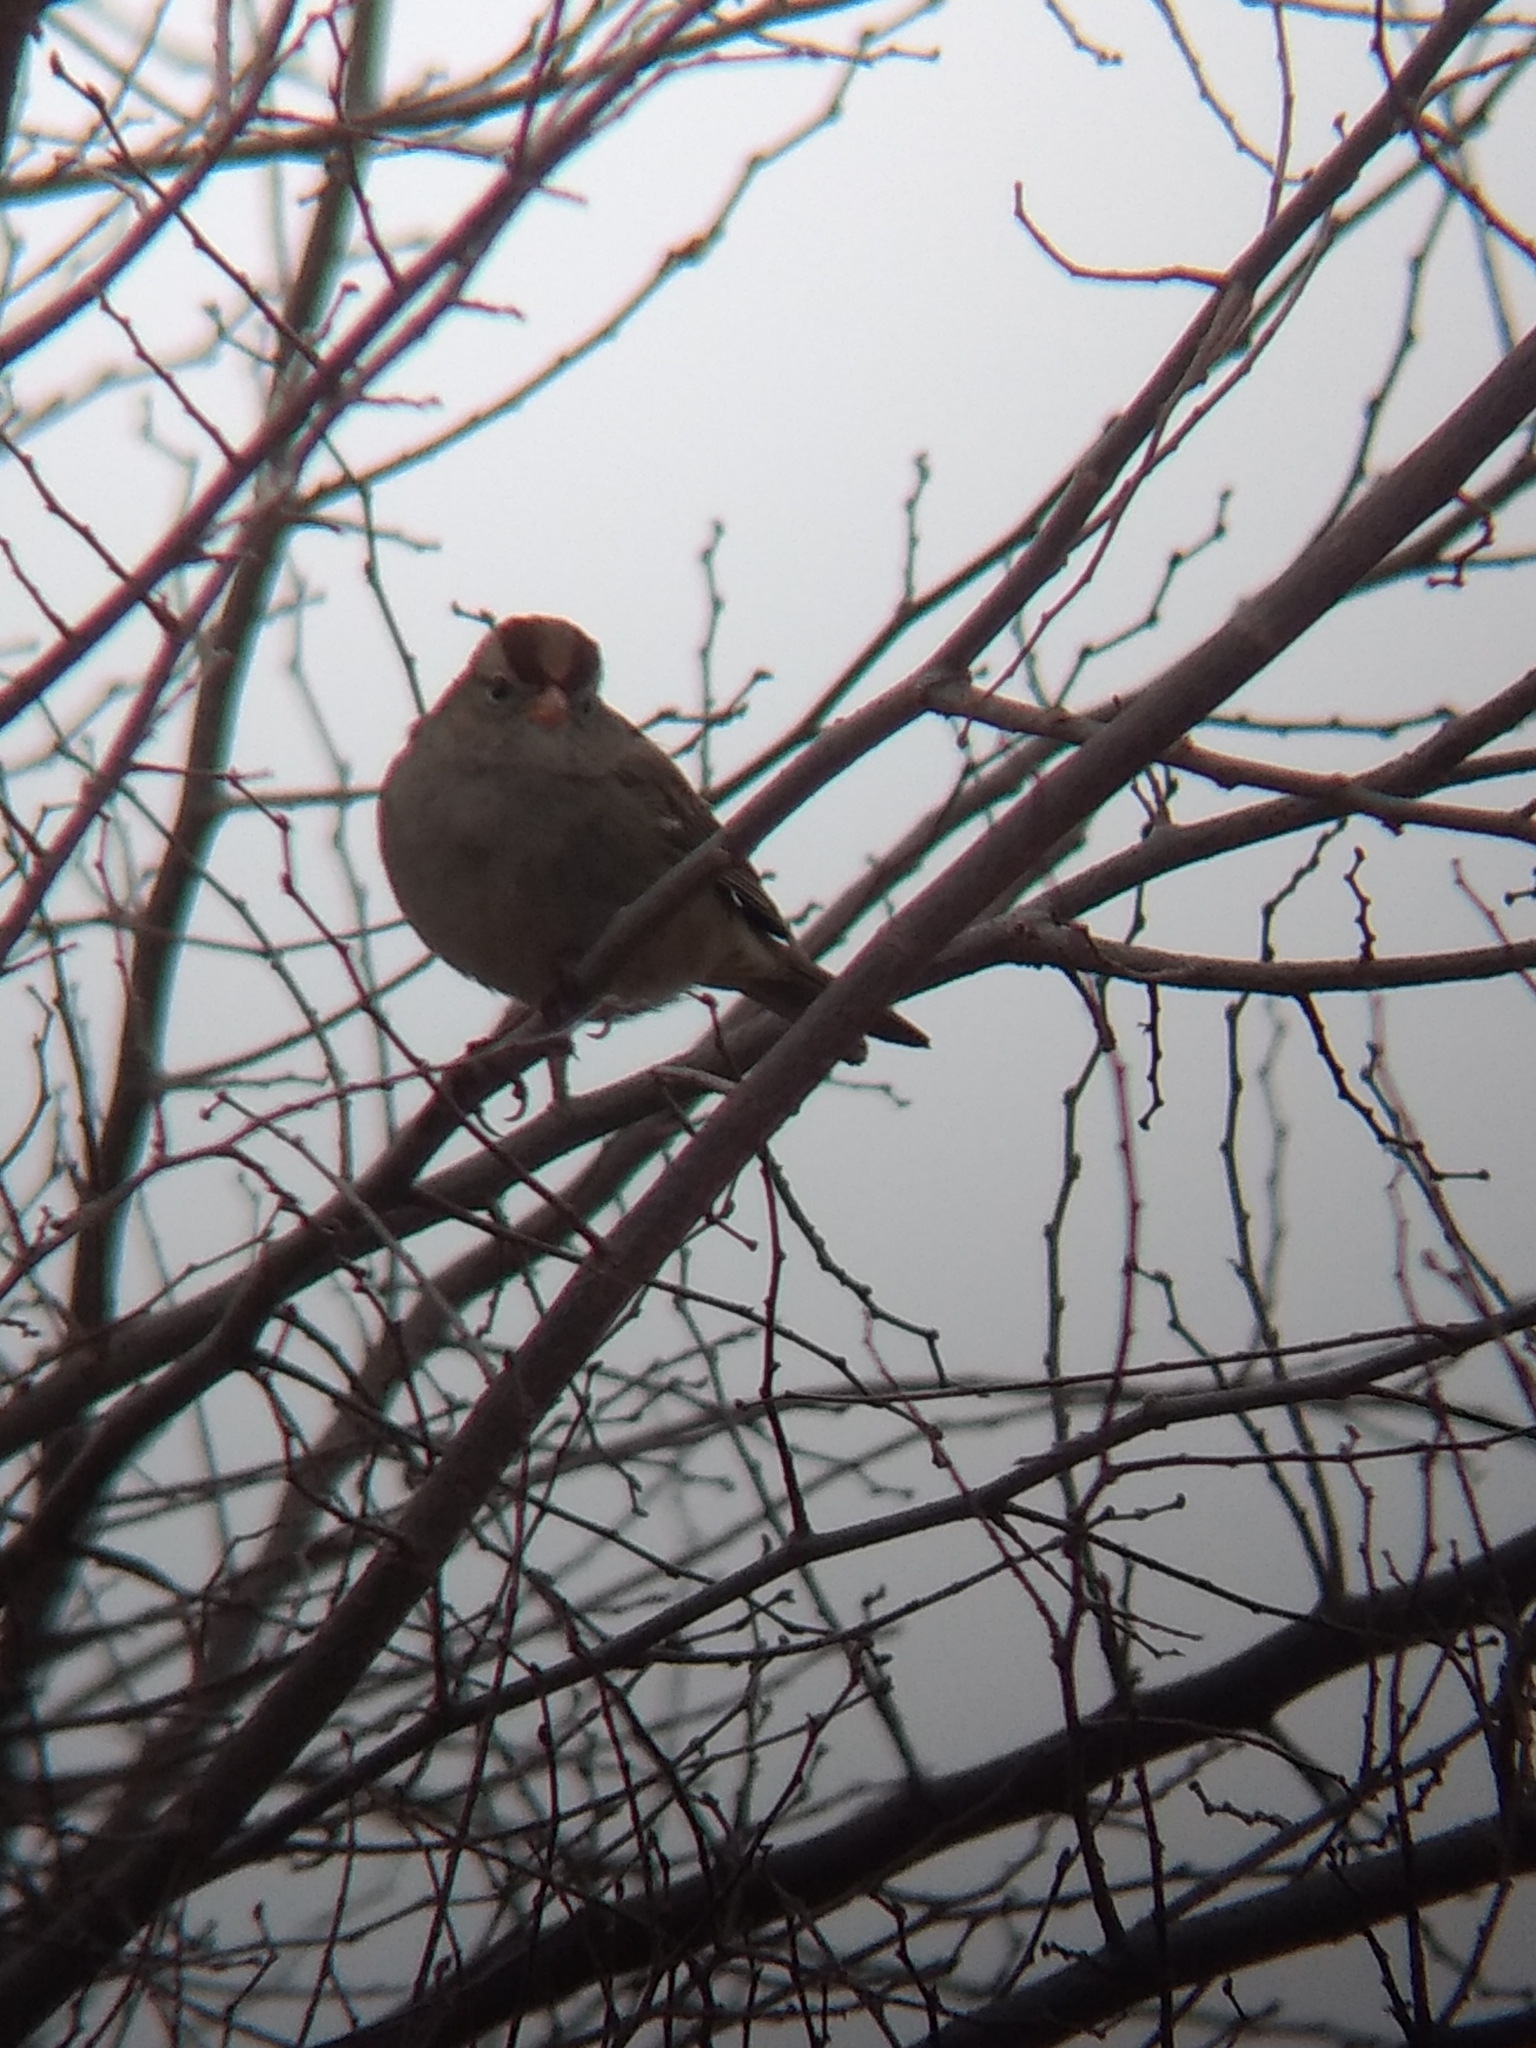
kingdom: Animalia
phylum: Chordata
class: Aves
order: Passeriformes
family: Passerellidae
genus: Zonotrichia
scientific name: Zonotrichia leucophrys
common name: White-crowned sparrow
